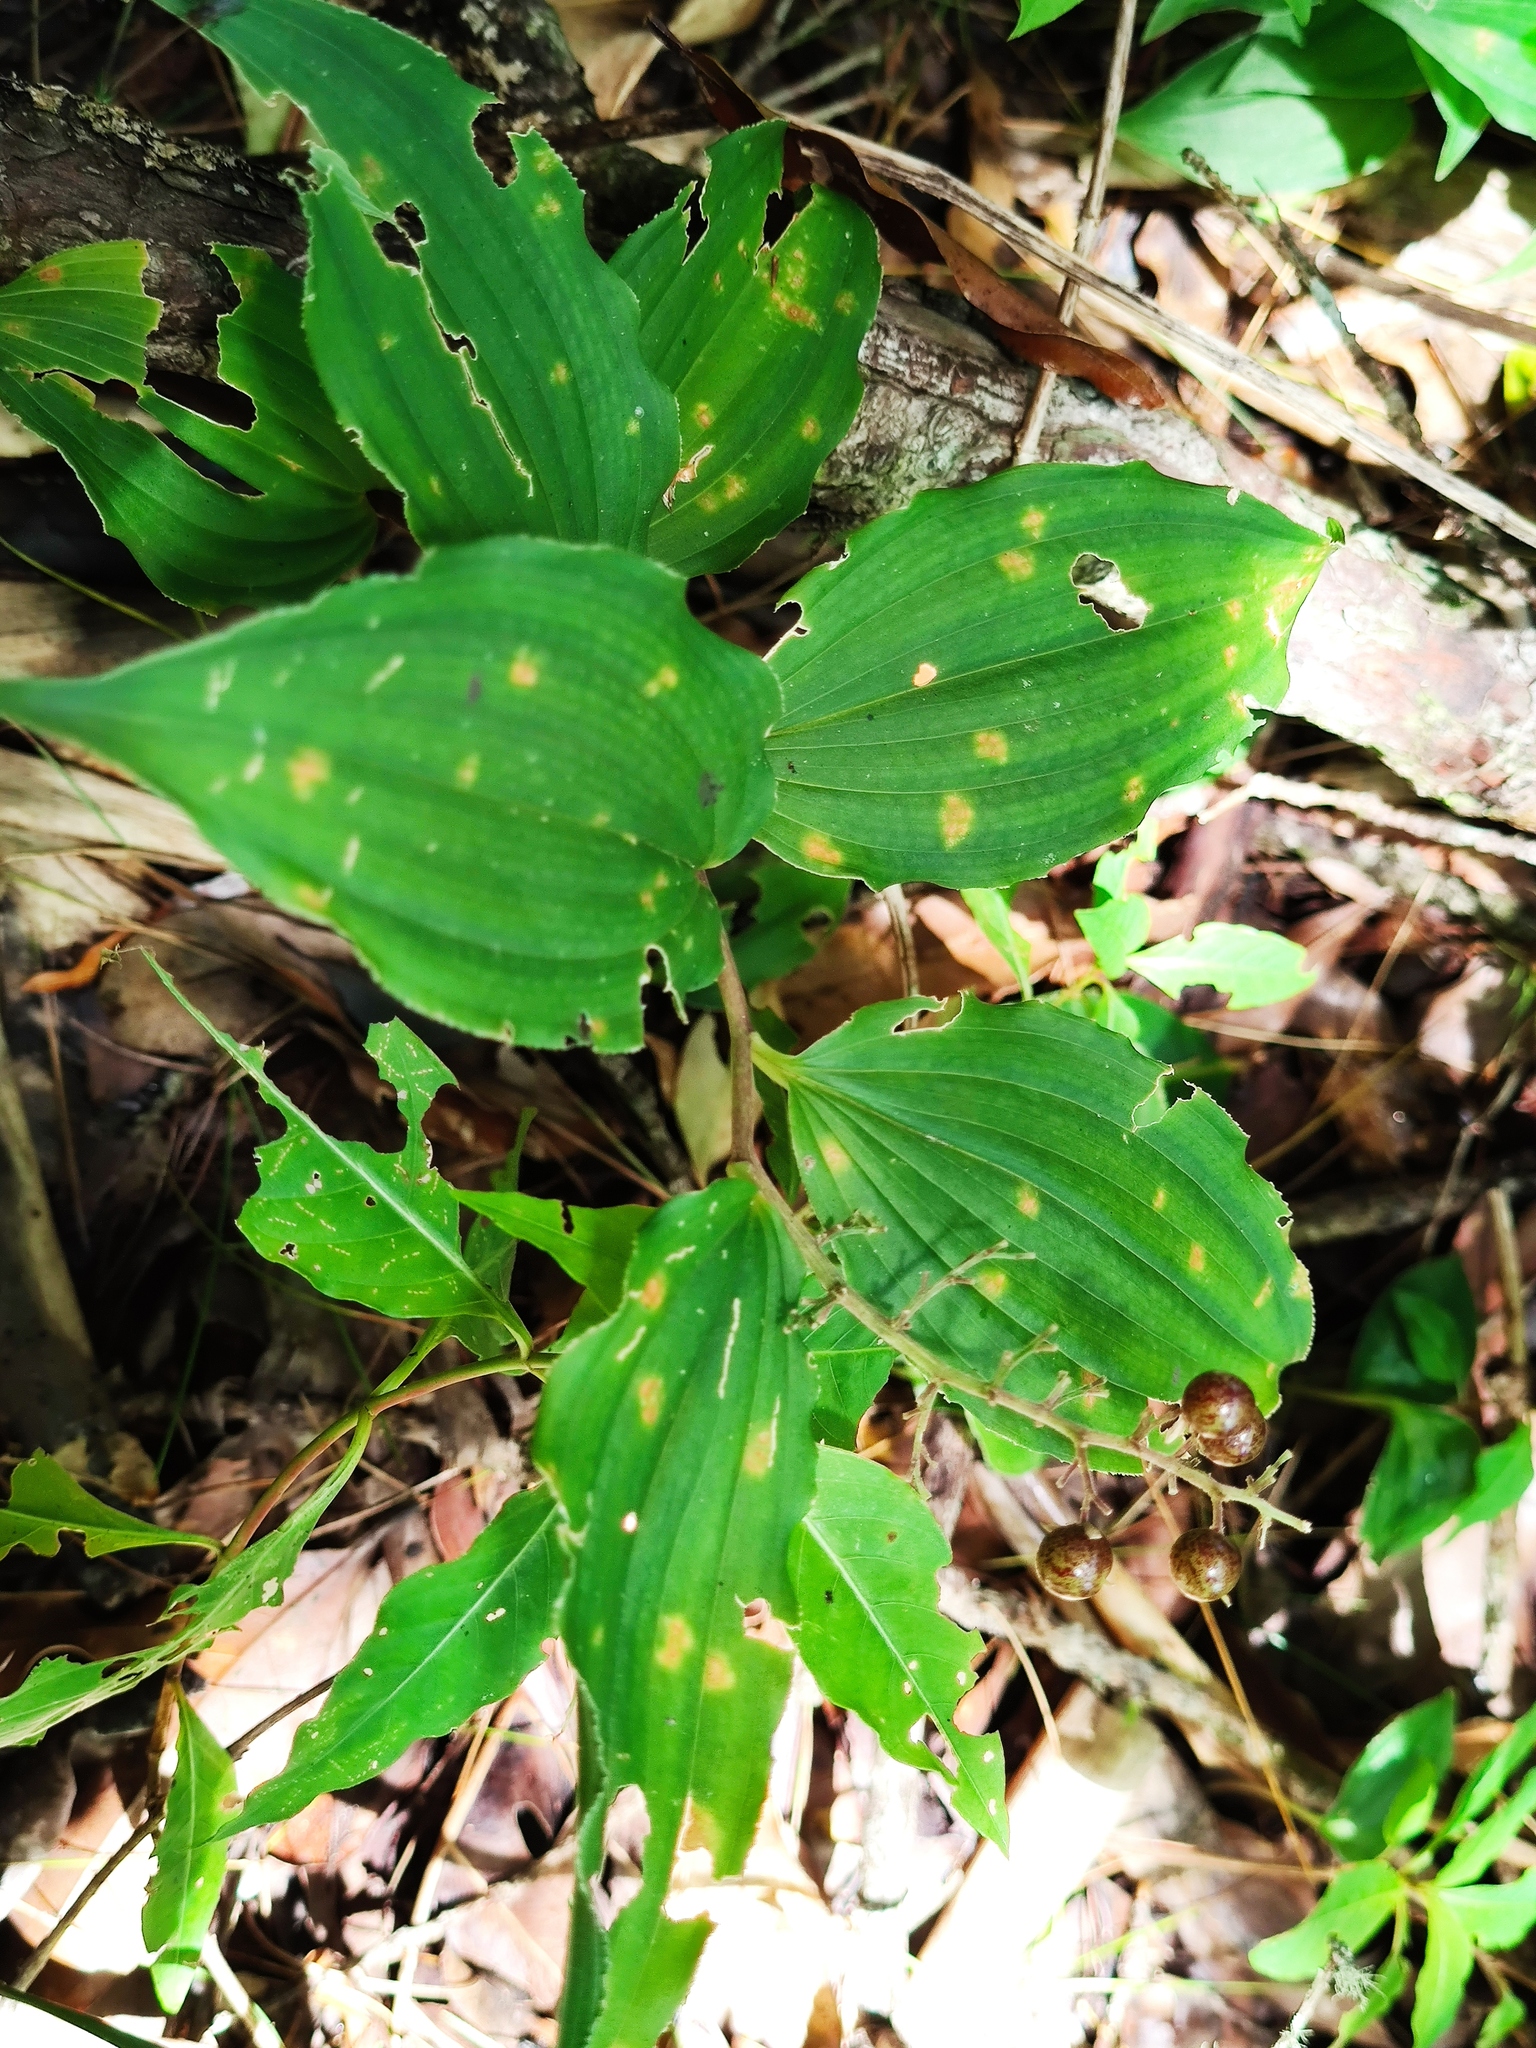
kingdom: Plantae
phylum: Tracheophyta
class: Liliopsida
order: Asparagales
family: Asparagaceae
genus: Maianthemum
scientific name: Maianthemum gigas
